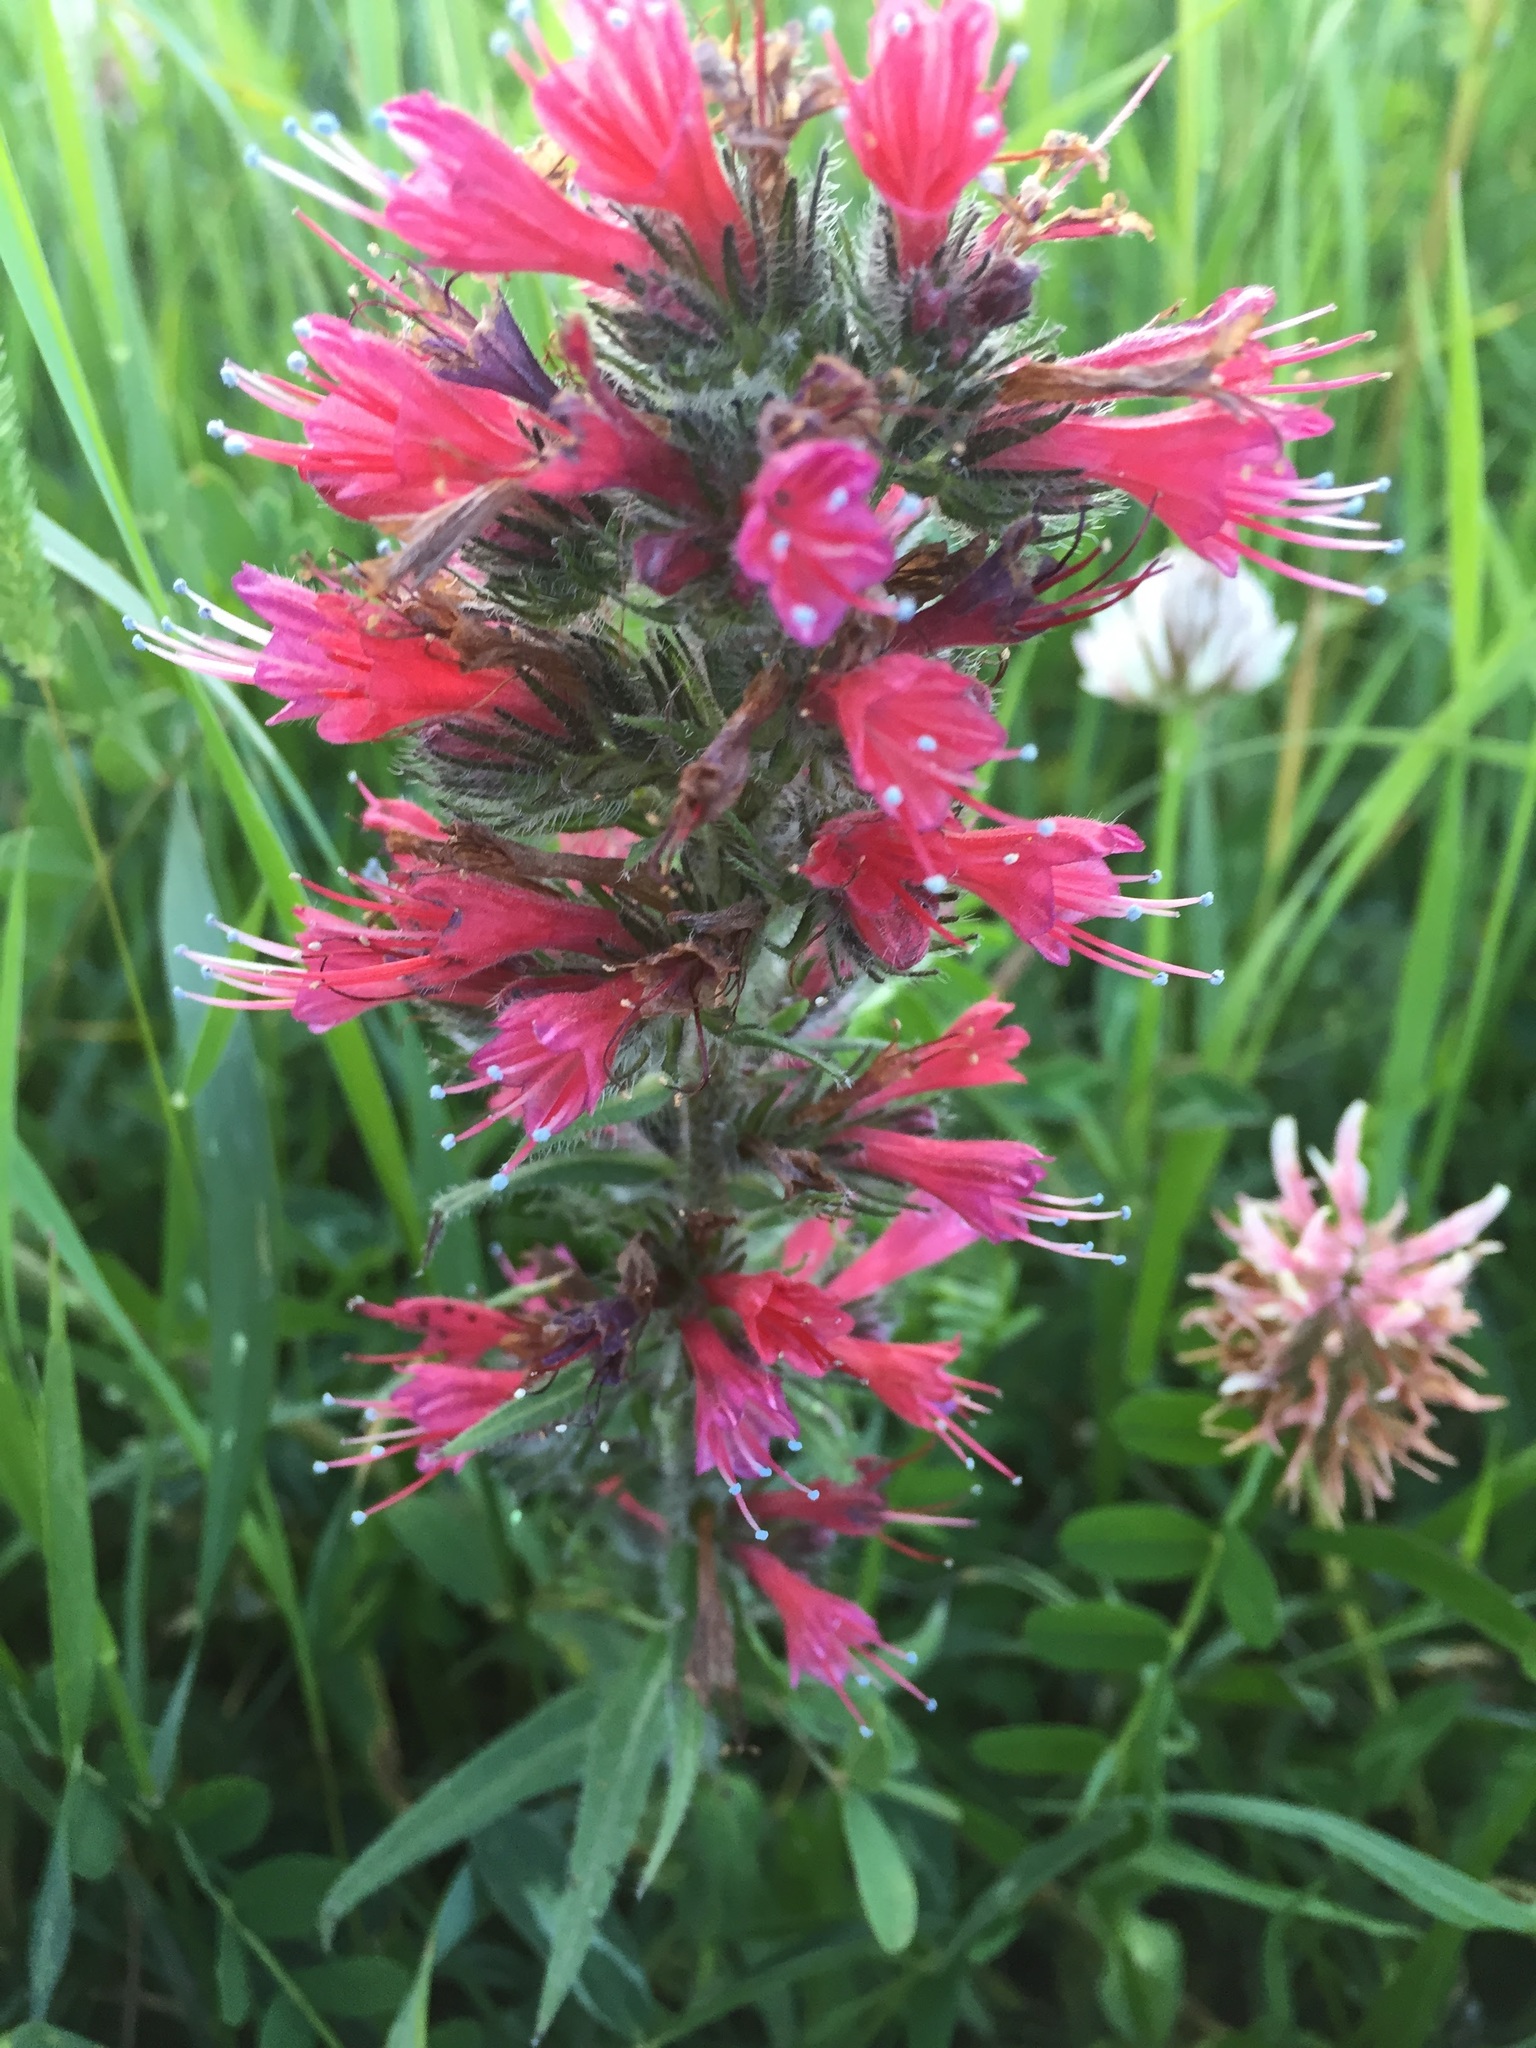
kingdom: Plantae
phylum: Tracheophyta
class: Magnoliopsida
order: Boraginales
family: Boraginaceae
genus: Pontechium
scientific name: Pontechium maculatum
